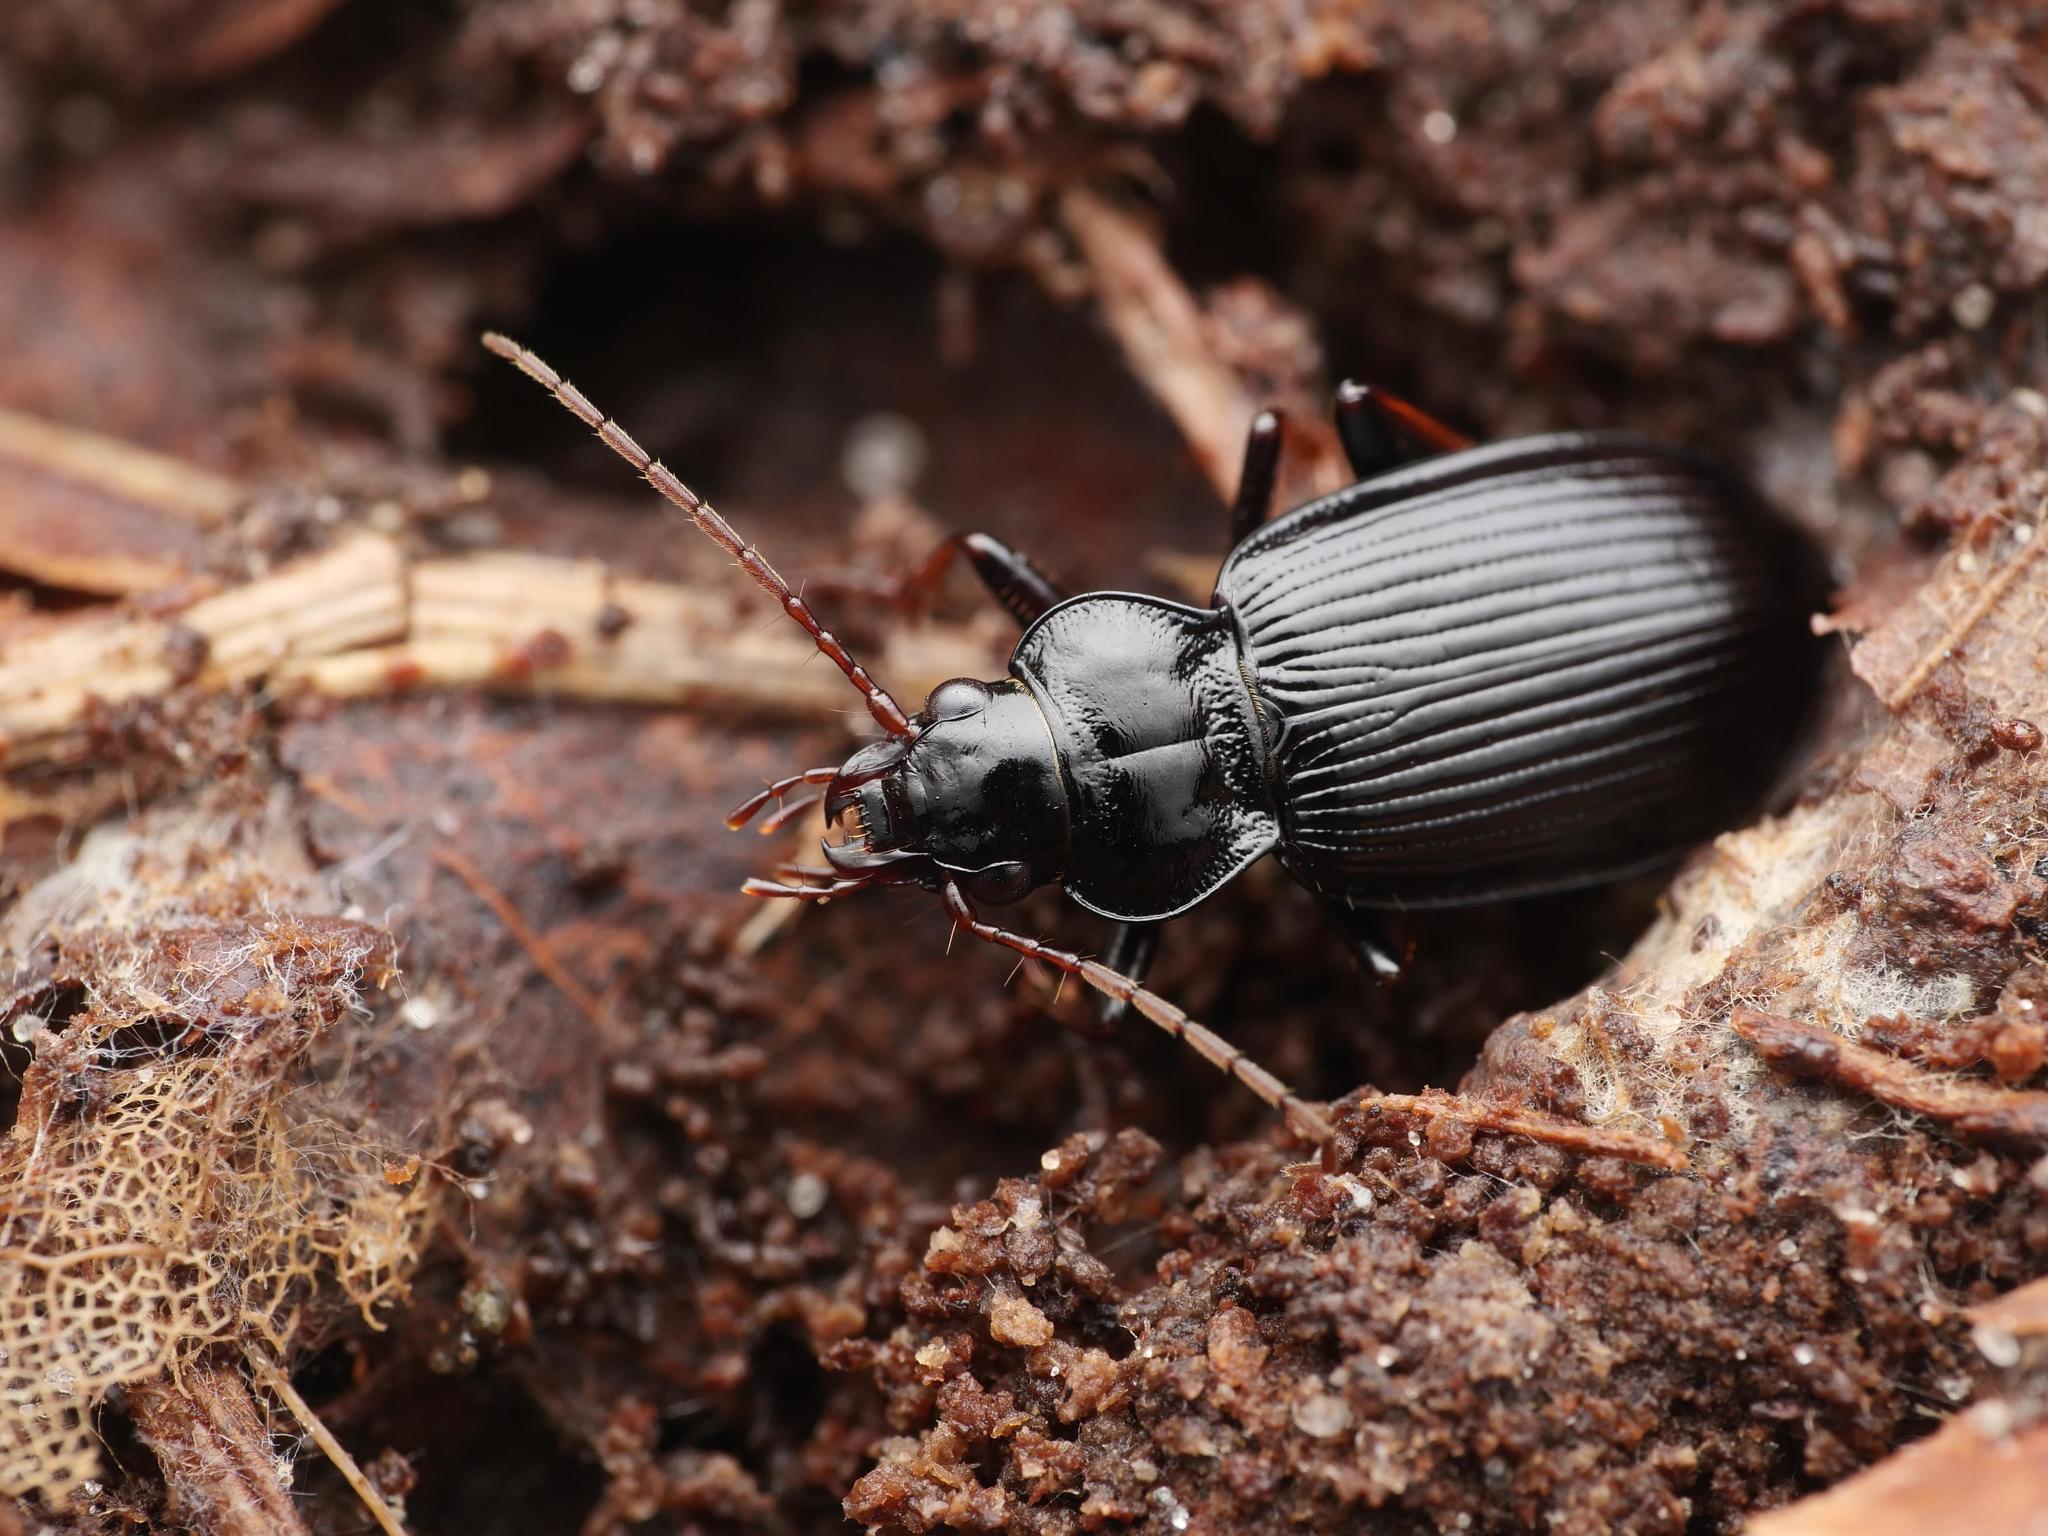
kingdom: Animalia
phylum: Arthropoda
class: Insecta
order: Coleoptera
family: Carabidae
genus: Nebria
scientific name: Nebria brevicollis
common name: Short-necked gazelle beetle
